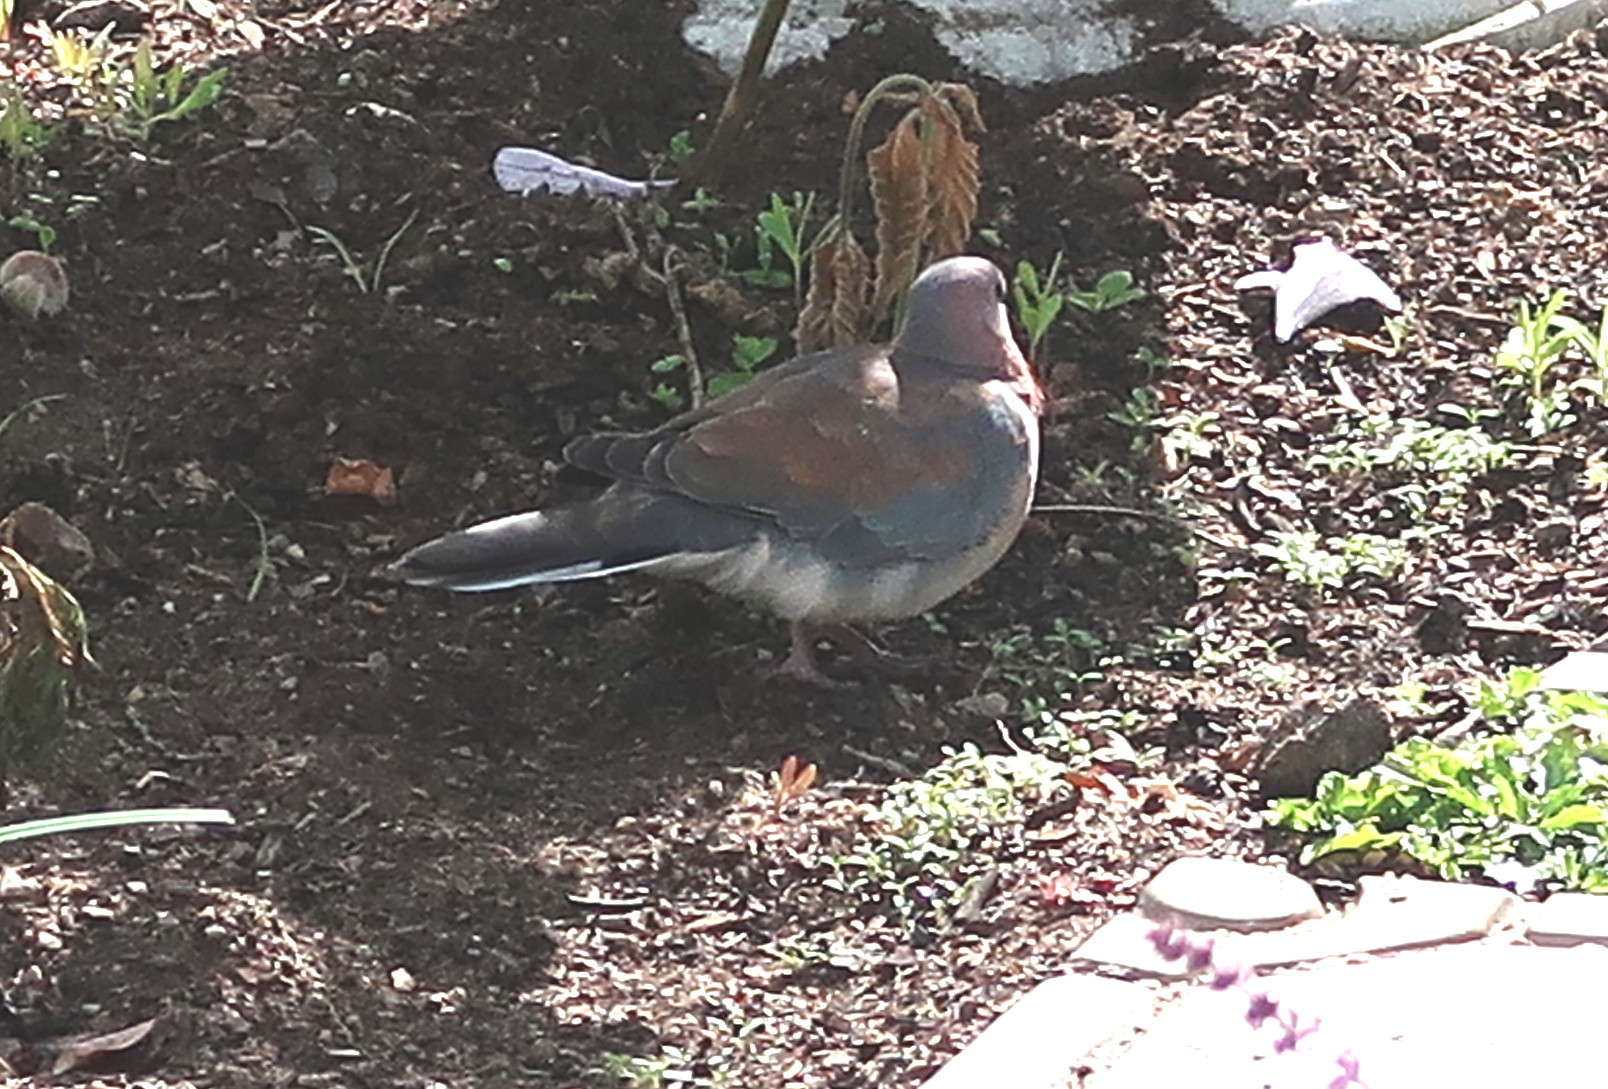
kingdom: Animalia
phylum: Chordata
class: Aves
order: Columbiformes
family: Columbidae
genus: Spilopelia
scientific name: Spilopelia senegalensis
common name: Laughing dove
